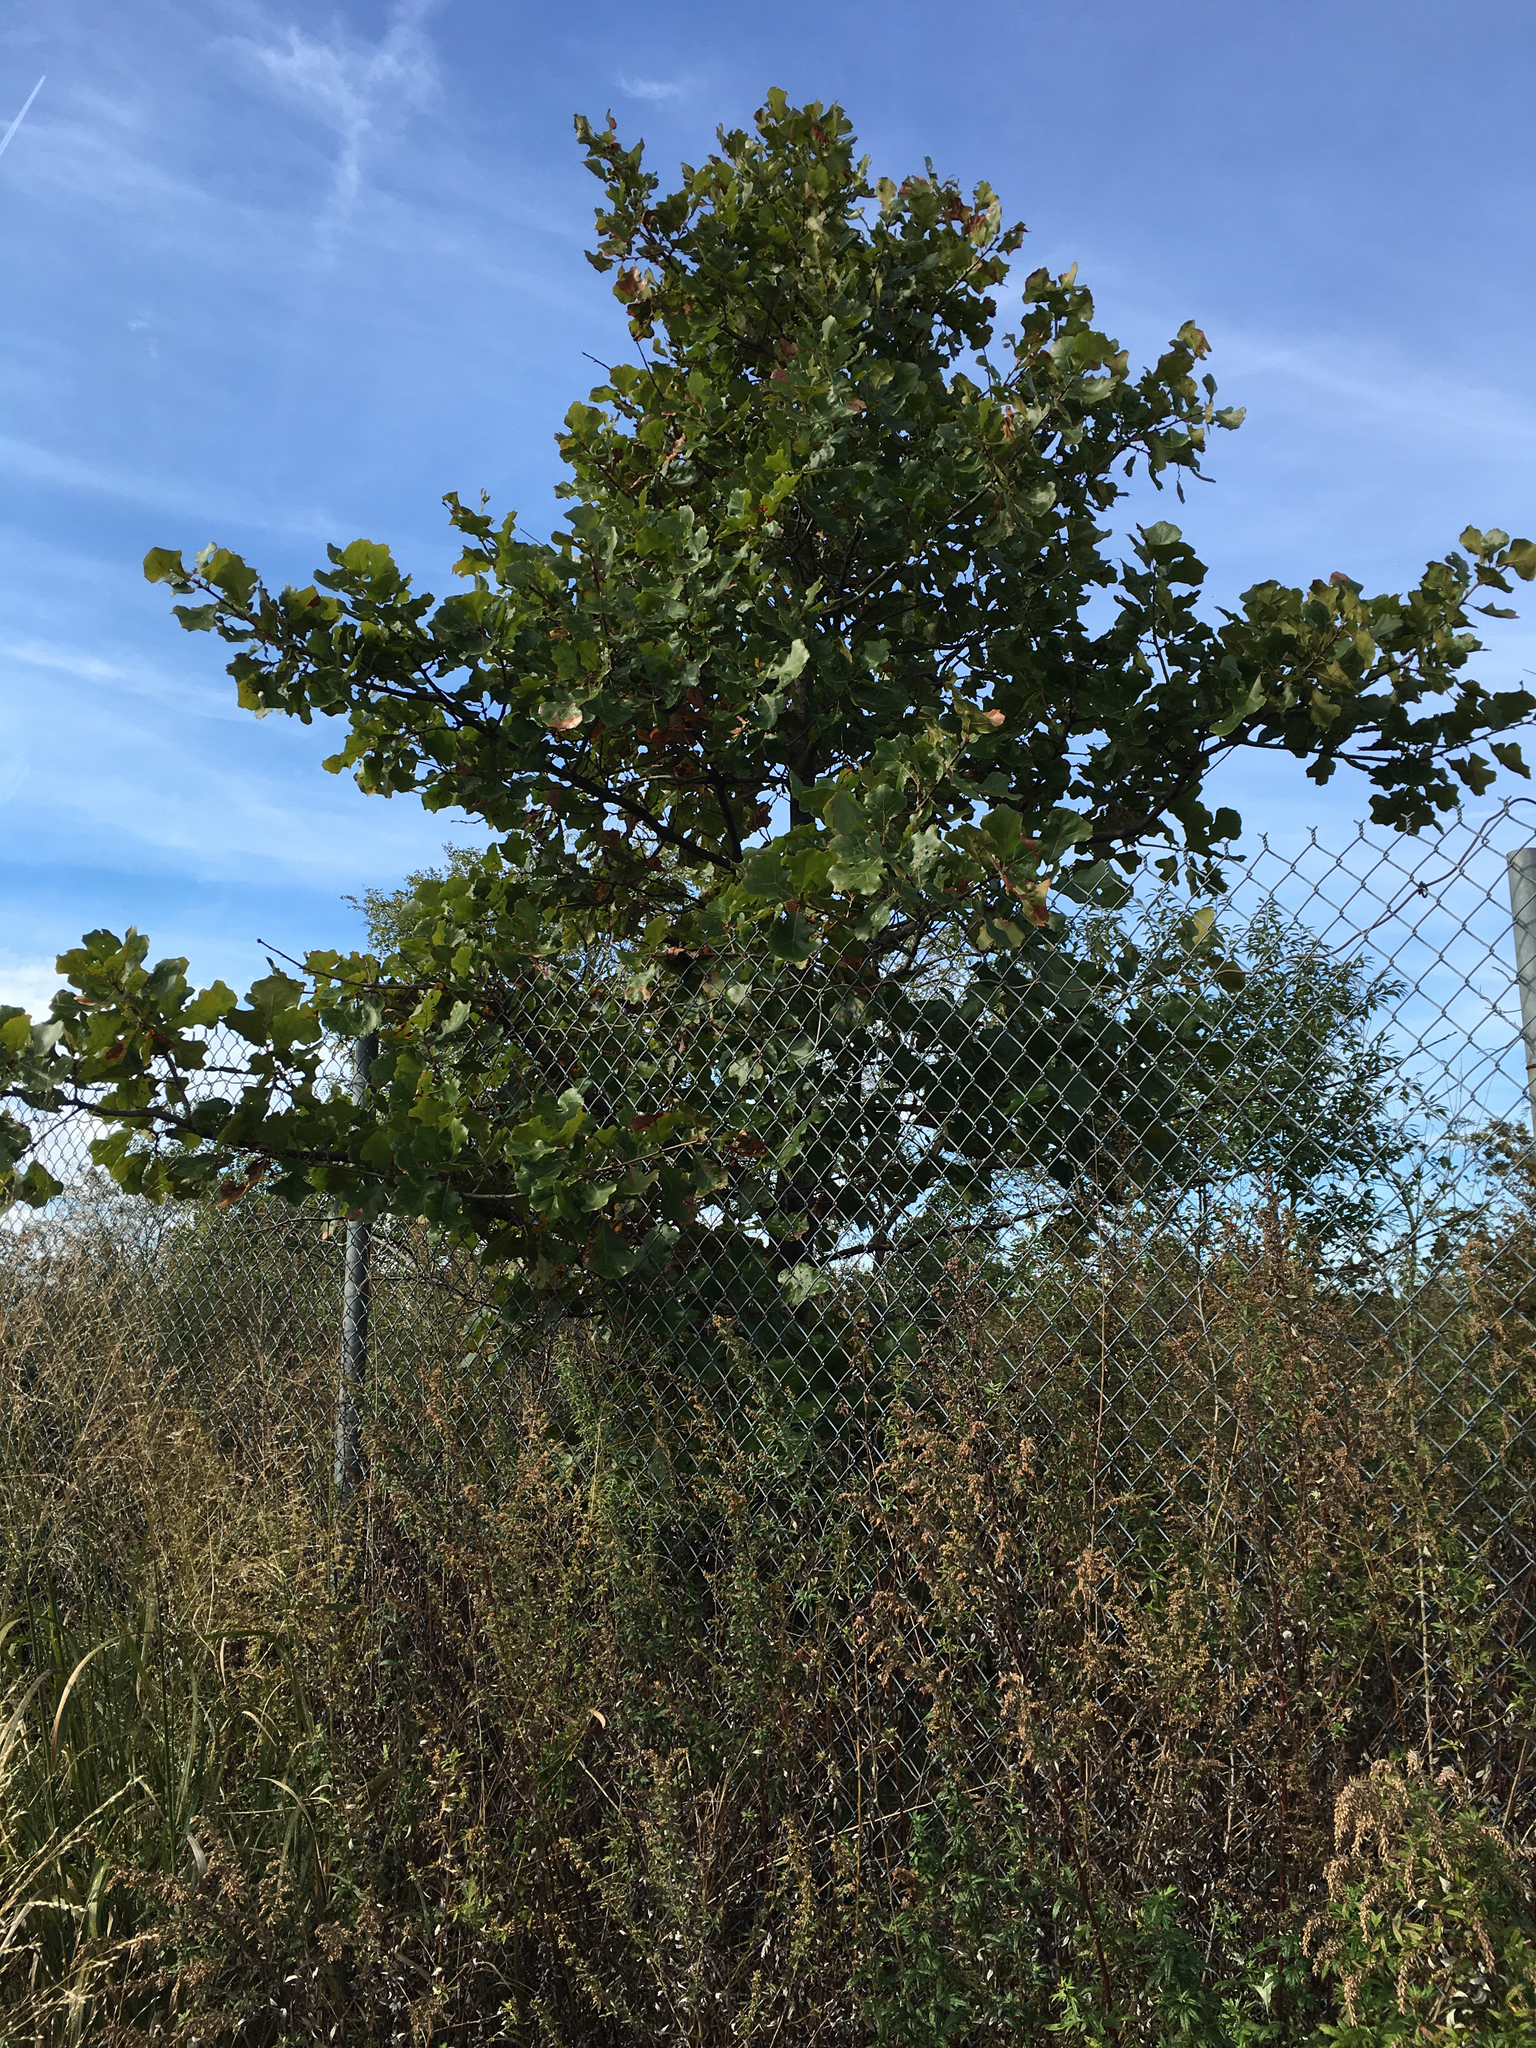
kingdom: Plantae
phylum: Tracheophyta
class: Magnoliopsida
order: Fagales
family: Fagaceae
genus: Quercus
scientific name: Quercus marilandica
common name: Blackjack oak
